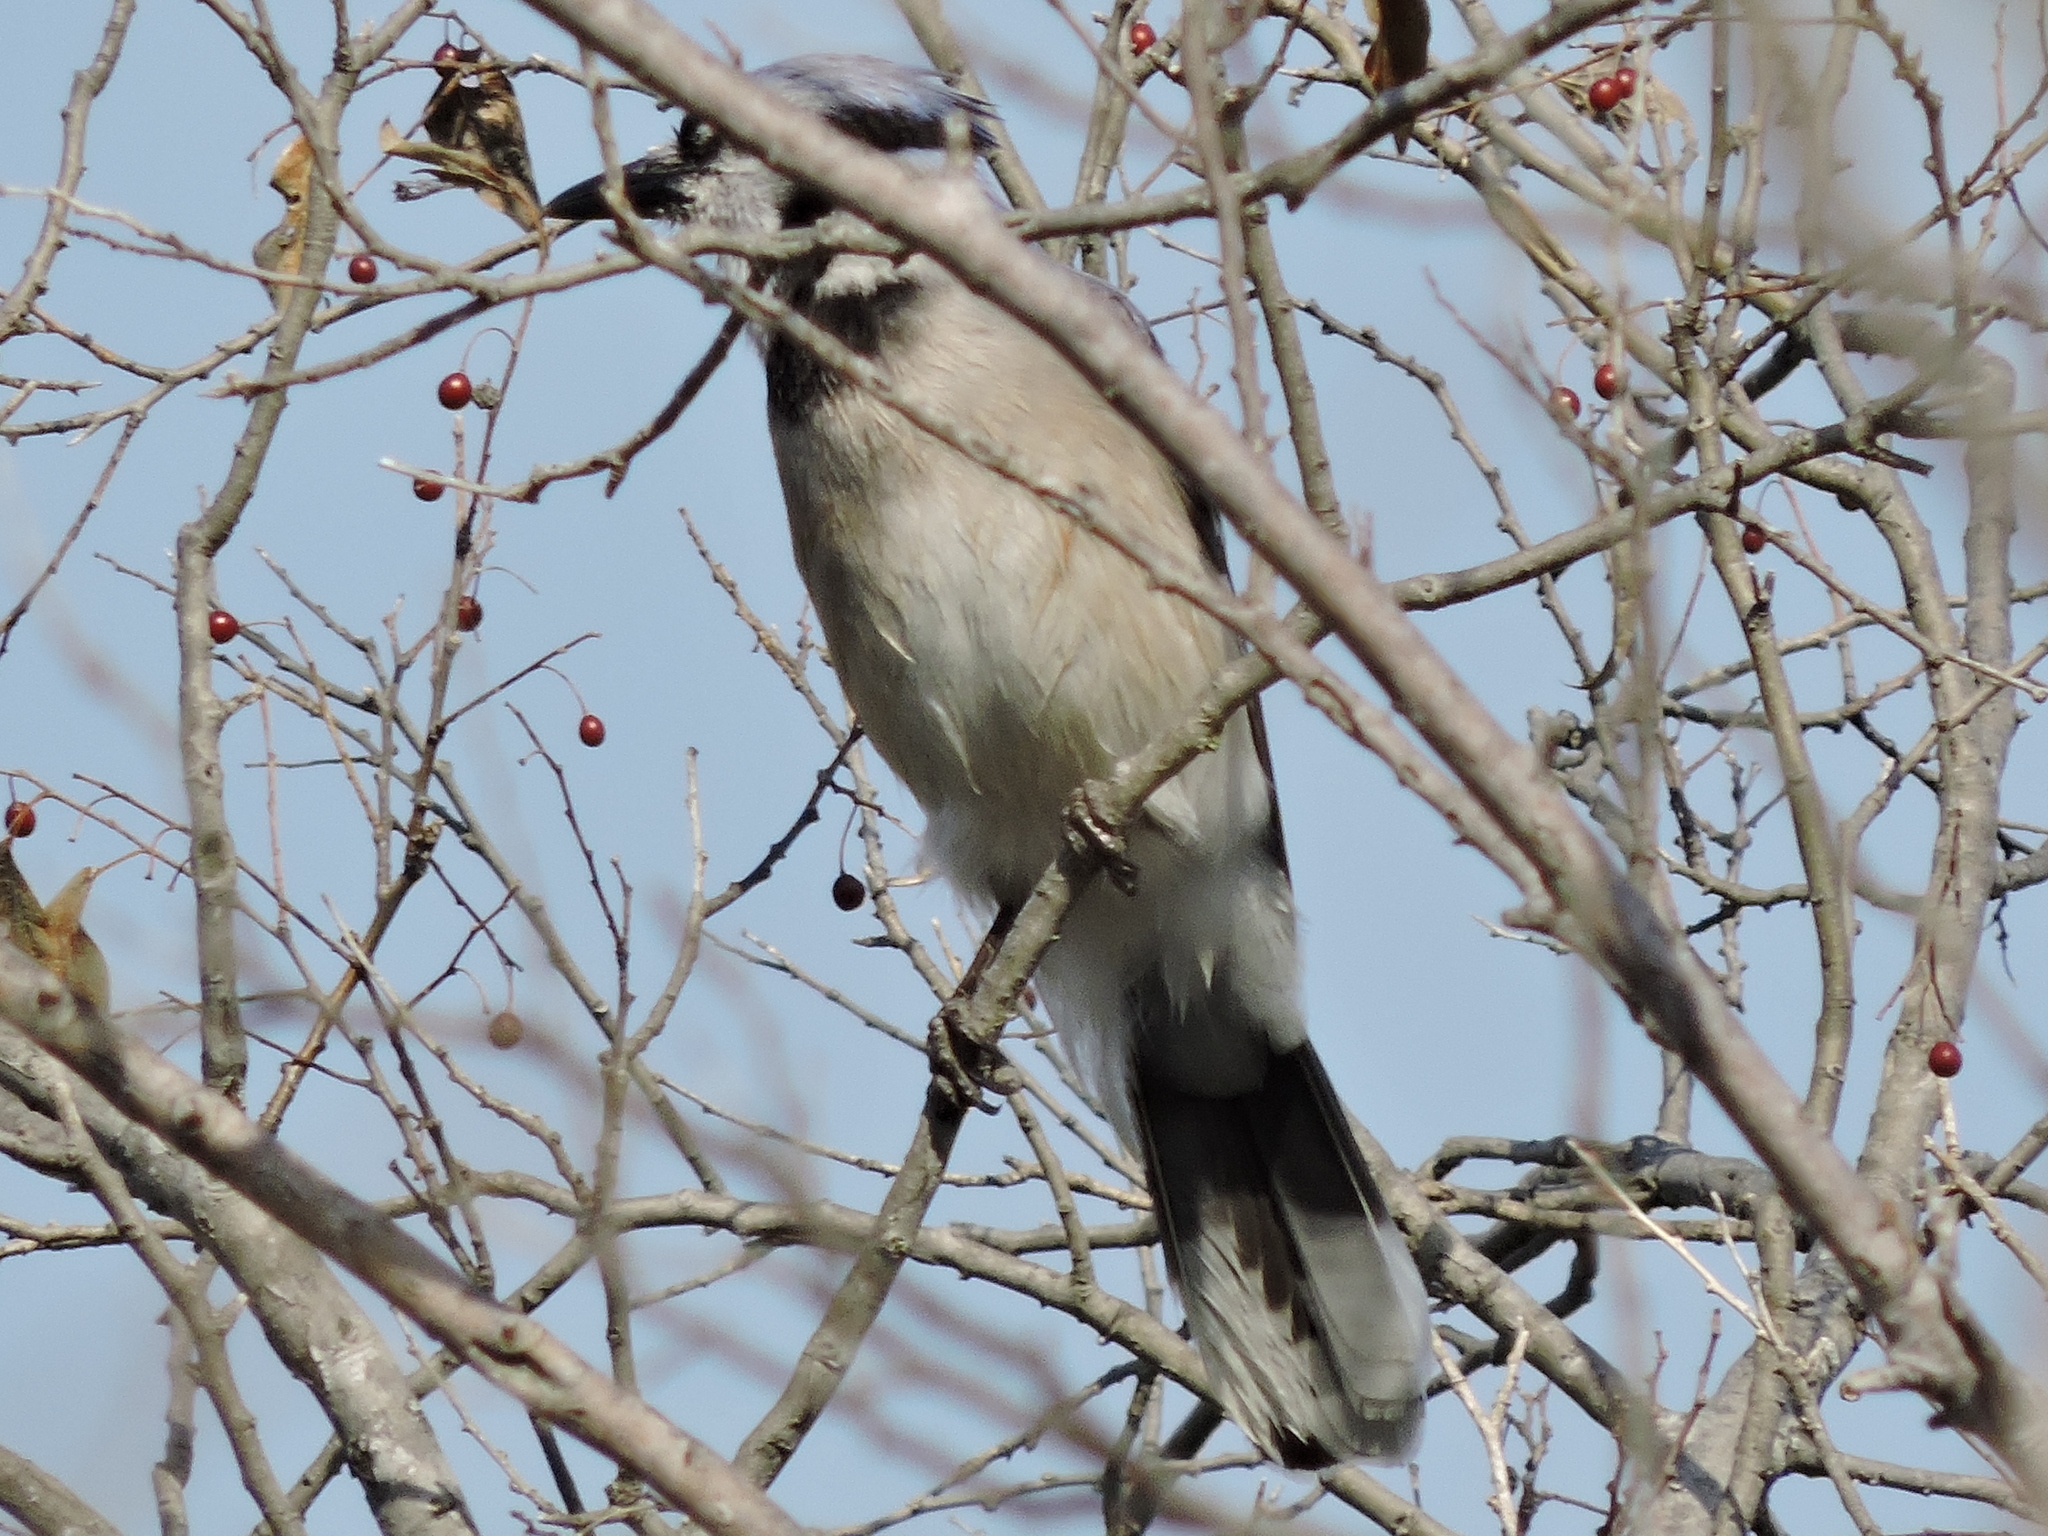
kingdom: Animalia
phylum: Chordata
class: Aves
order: Passeriformes
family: Corvidae
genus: Cyanocitta
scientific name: Cyanocitta cristata
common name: Blue jay
